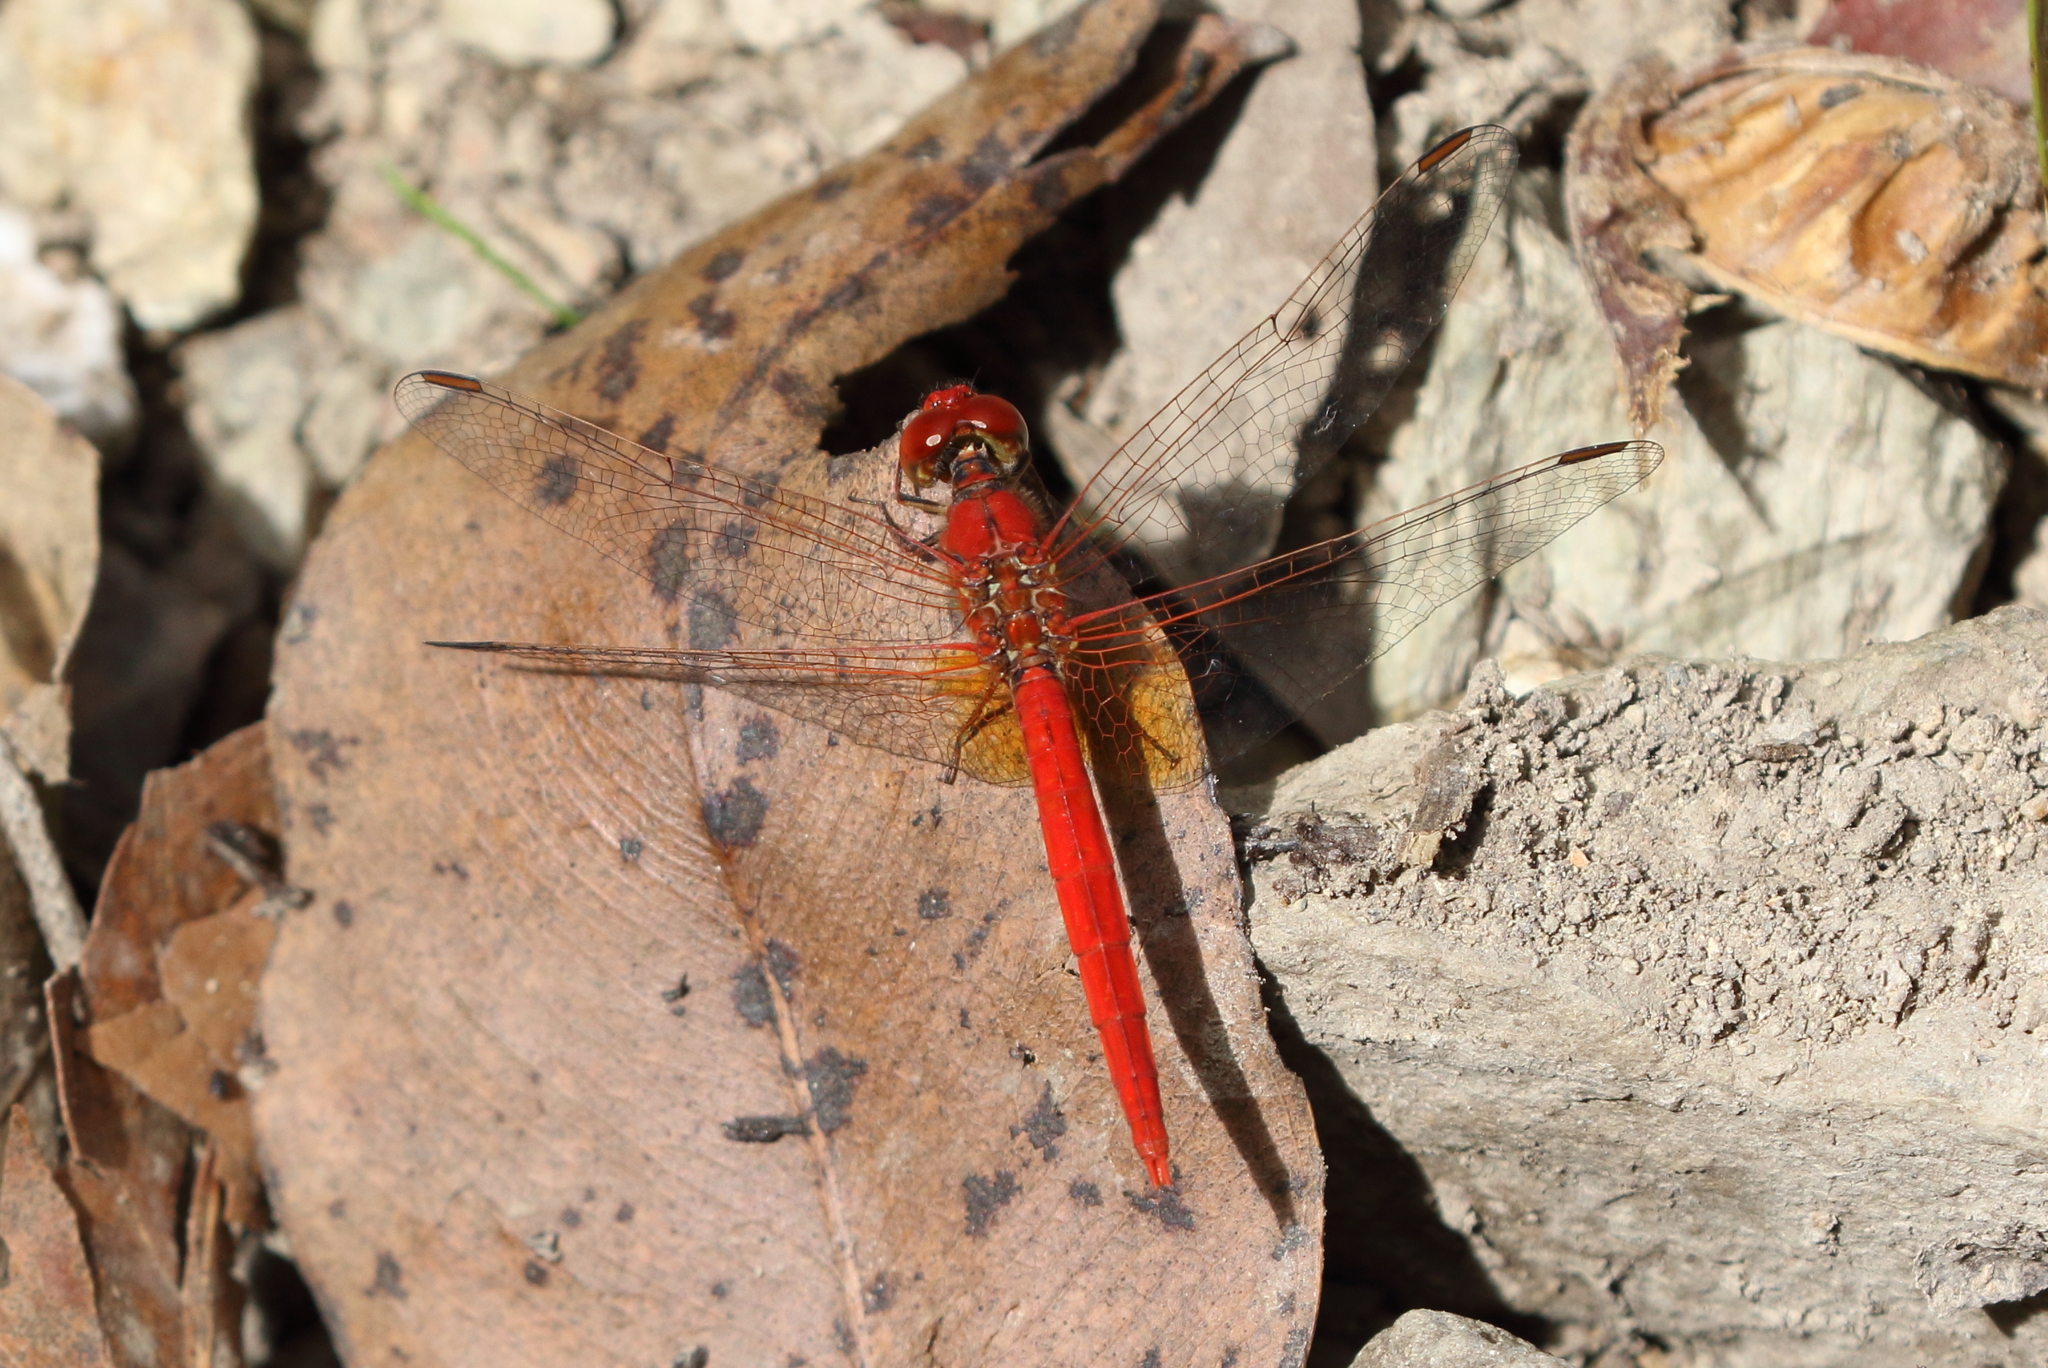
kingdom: Animalia
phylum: Arthropoda
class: Insecta
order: Odonata
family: Libellulidae
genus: Diplacodes
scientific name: Diplacodes haematodes
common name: Scarlet percher
